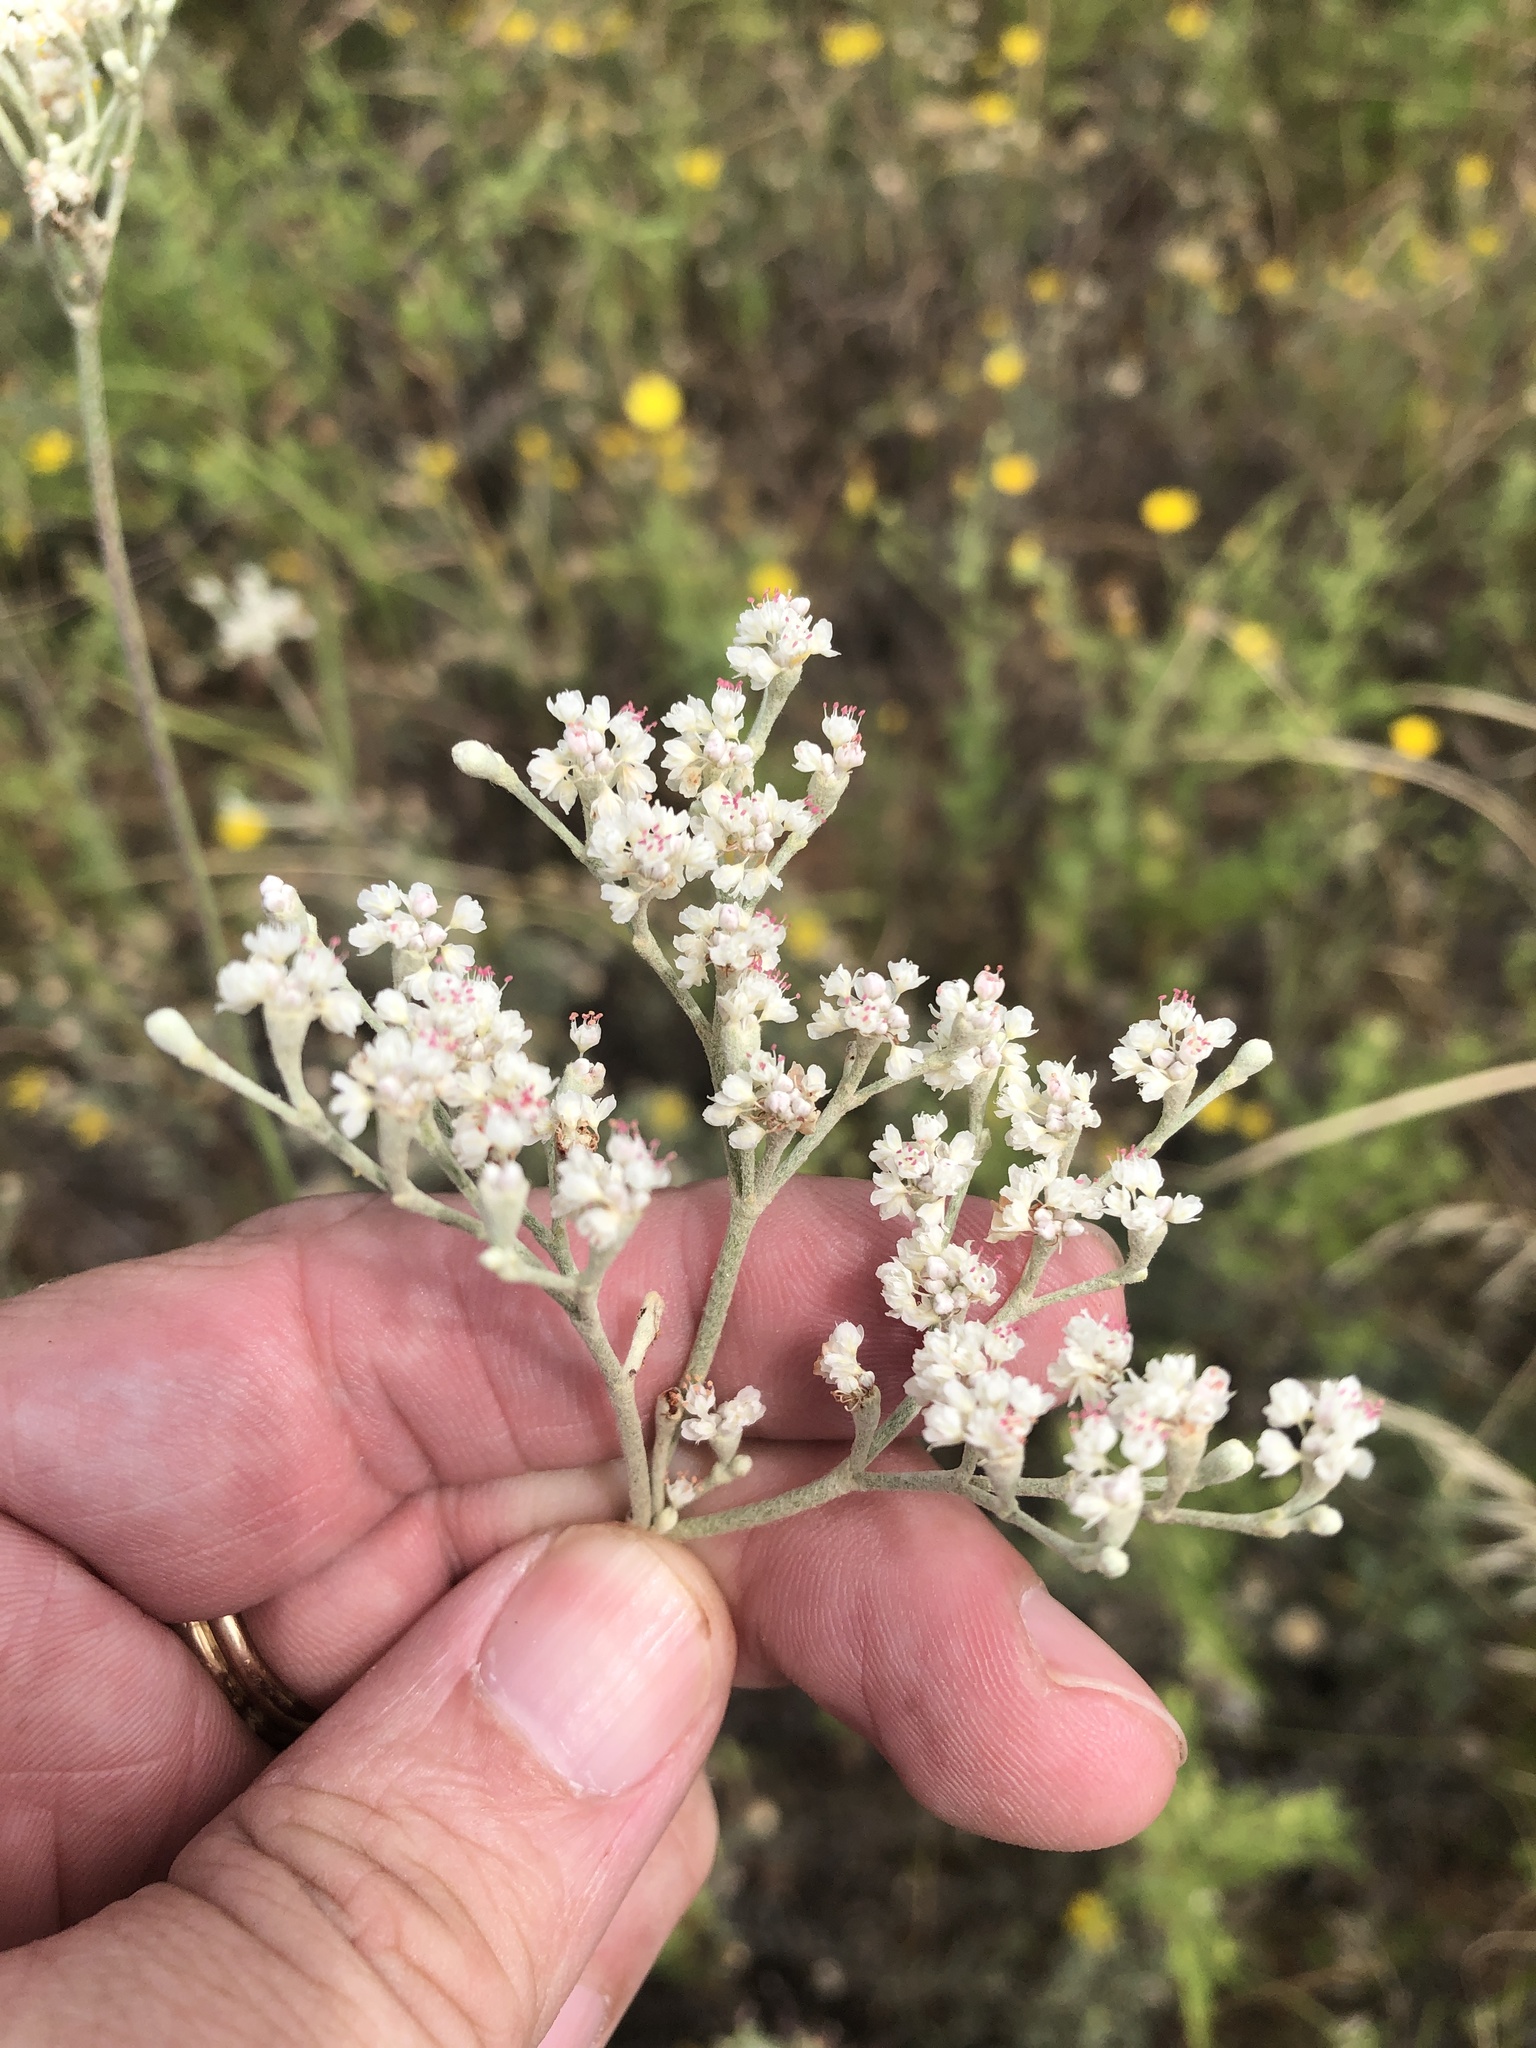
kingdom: Plantae
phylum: Tracheophyta
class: Magnoliopsida
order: Caryophyllales
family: Polygonaceae
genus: Eriogonum
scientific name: Eriogonum annuum
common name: Annual wild buckwheat
